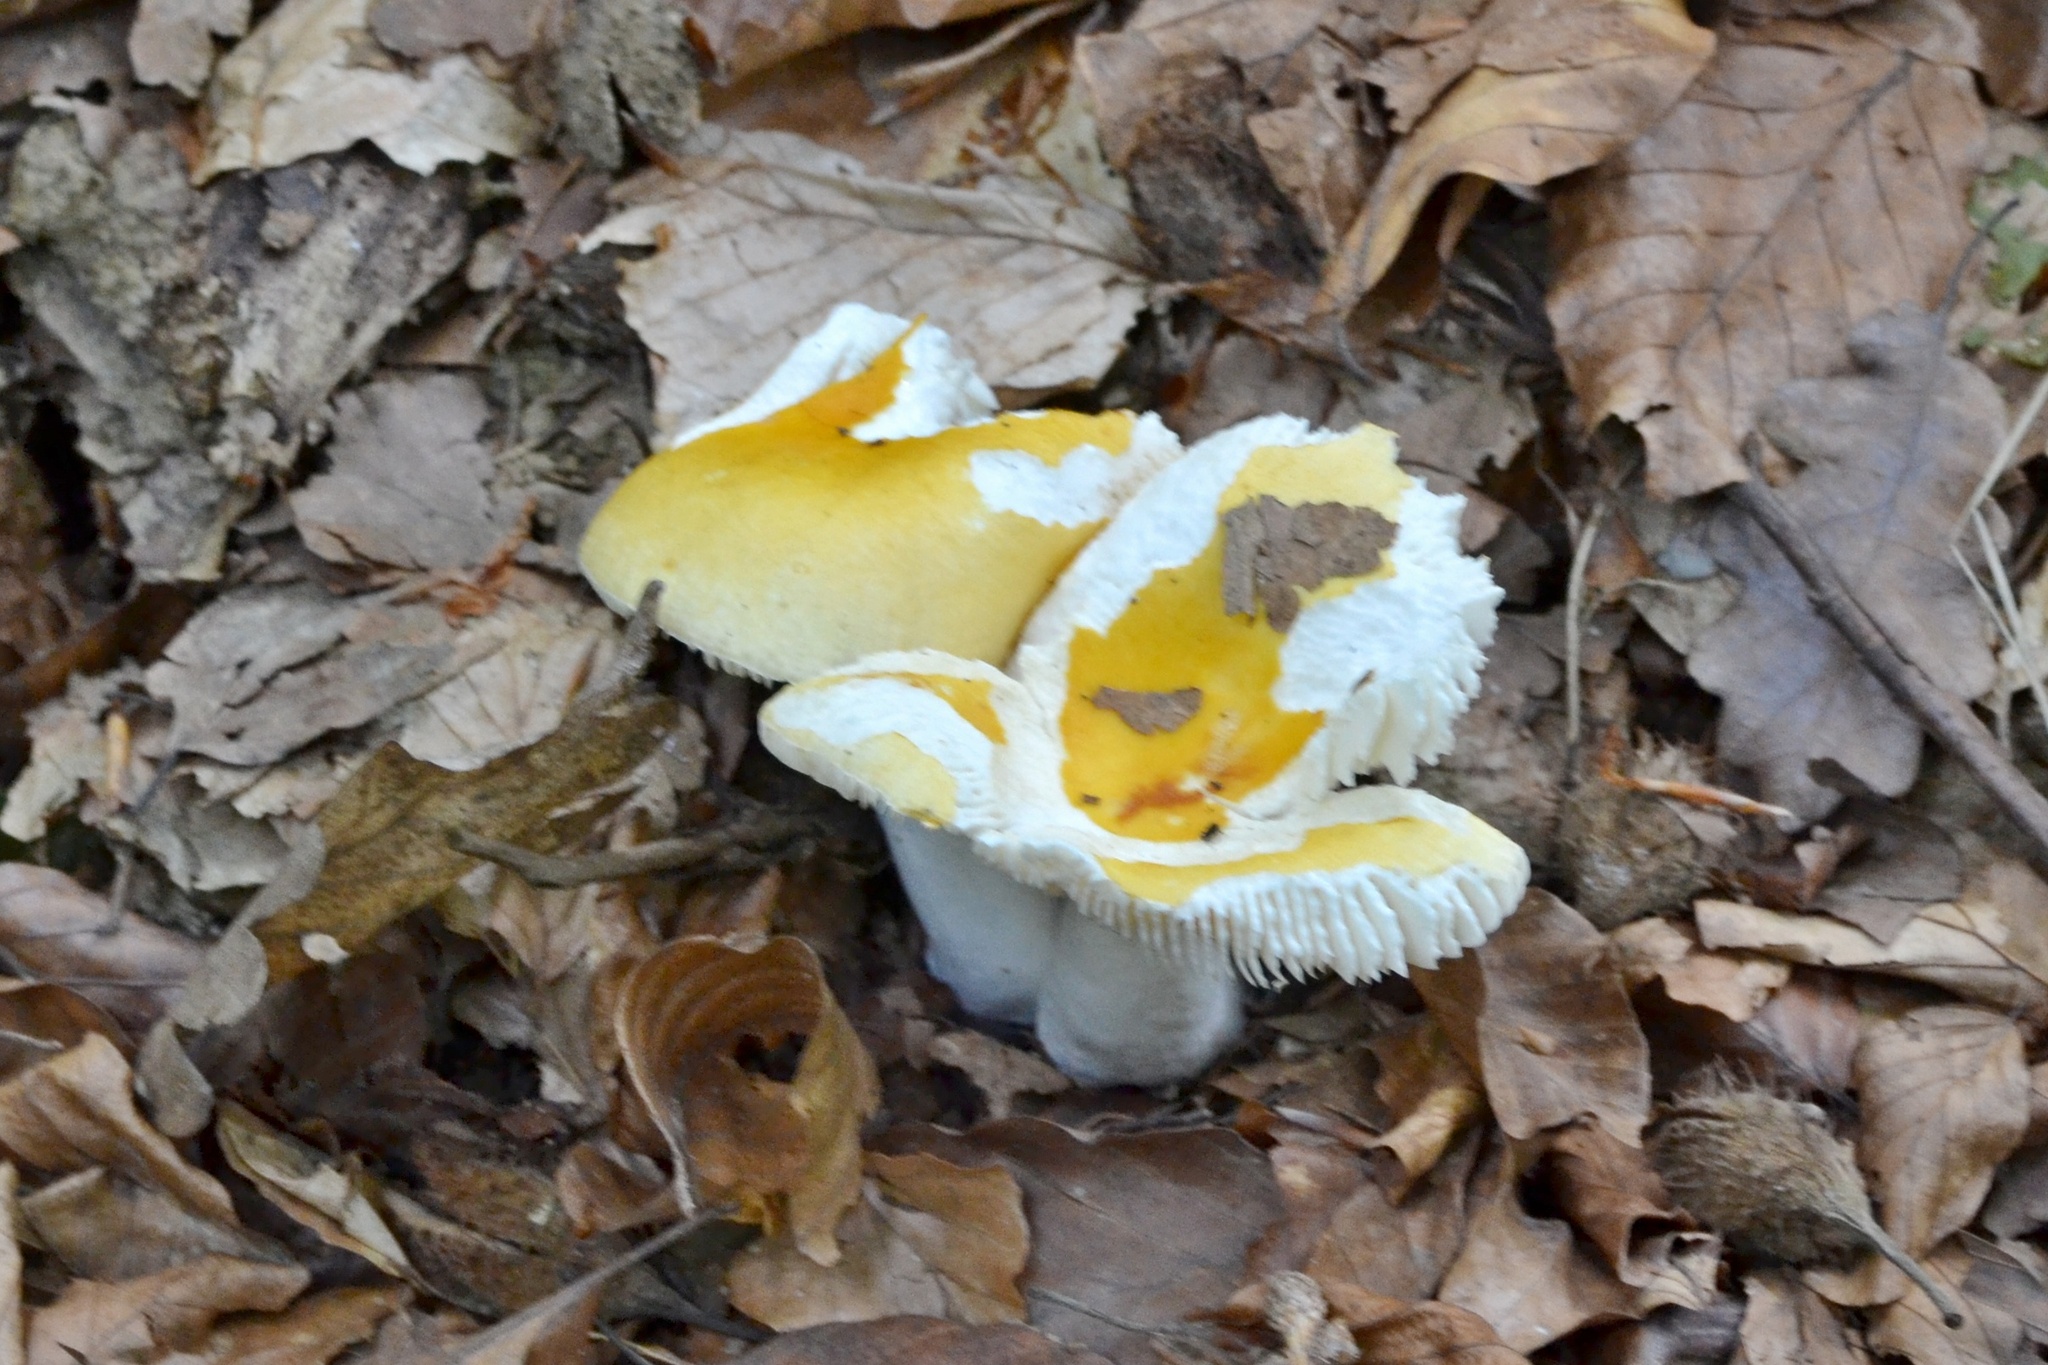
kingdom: Fungi
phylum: Basidiomycota
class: Agaricomycetes
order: Russulales
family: Russulaceae
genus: Russula
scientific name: Russula solaris
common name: Sunny brittlegill
